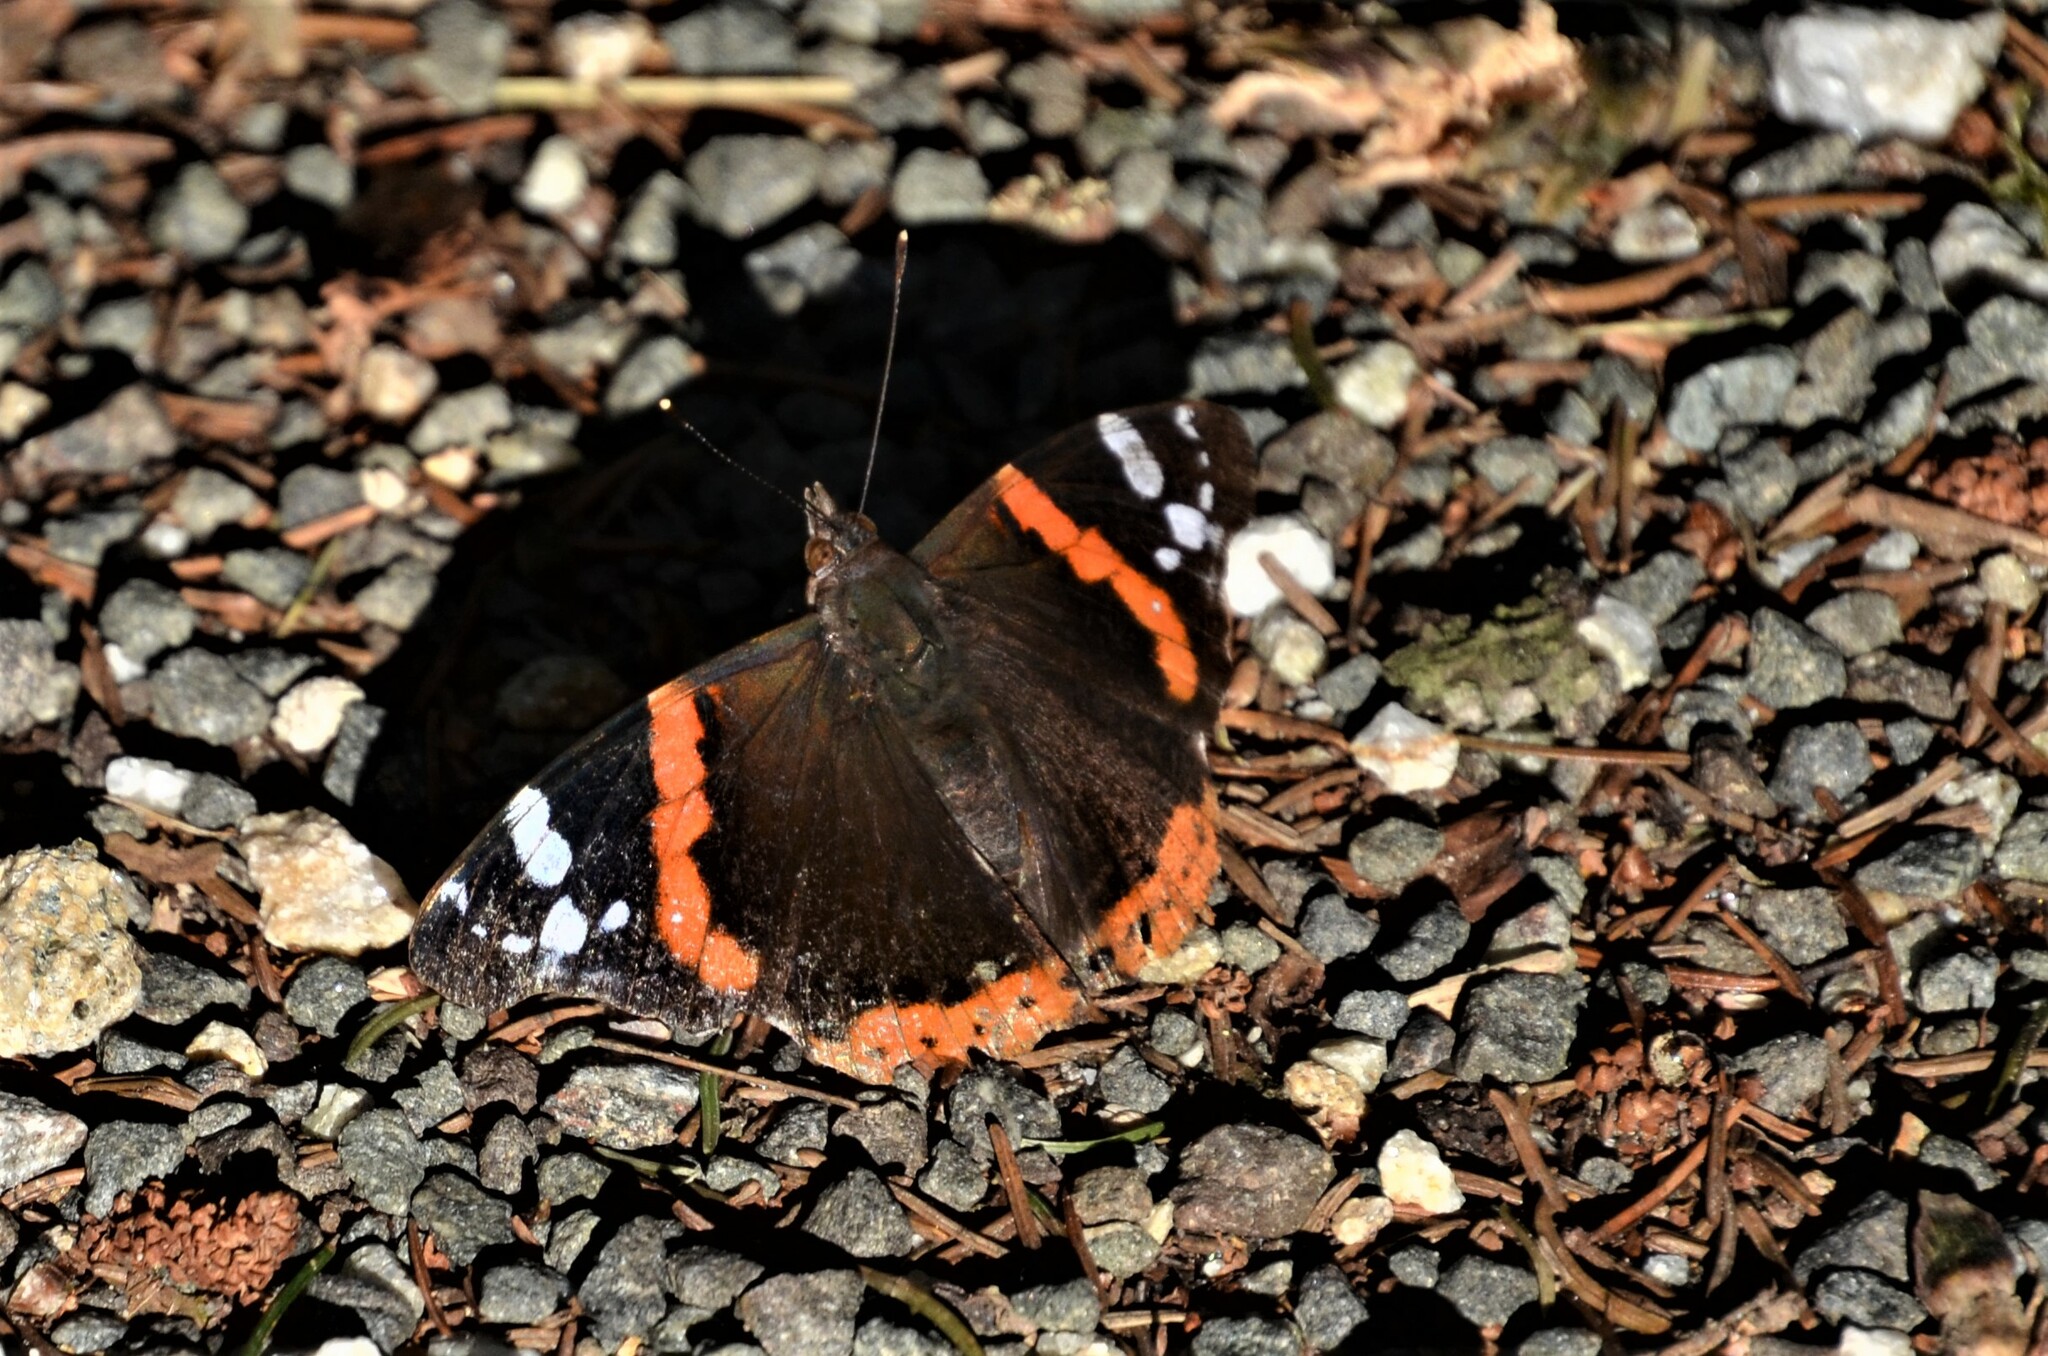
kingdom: Animalia
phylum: Arthropoda
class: Insecta
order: Lepidoptera
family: Nymphalidae
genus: Vanessa
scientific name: Vanessa atalanta
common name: Red admiral
